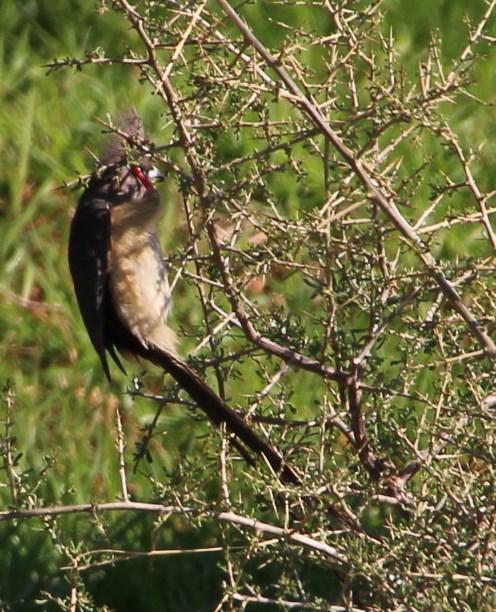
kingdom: Animalia
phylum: Chordata
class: Aves
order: Coliiformes
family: Coliidae
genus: Colius
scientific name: Colius colius
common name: White-backed mousebird
